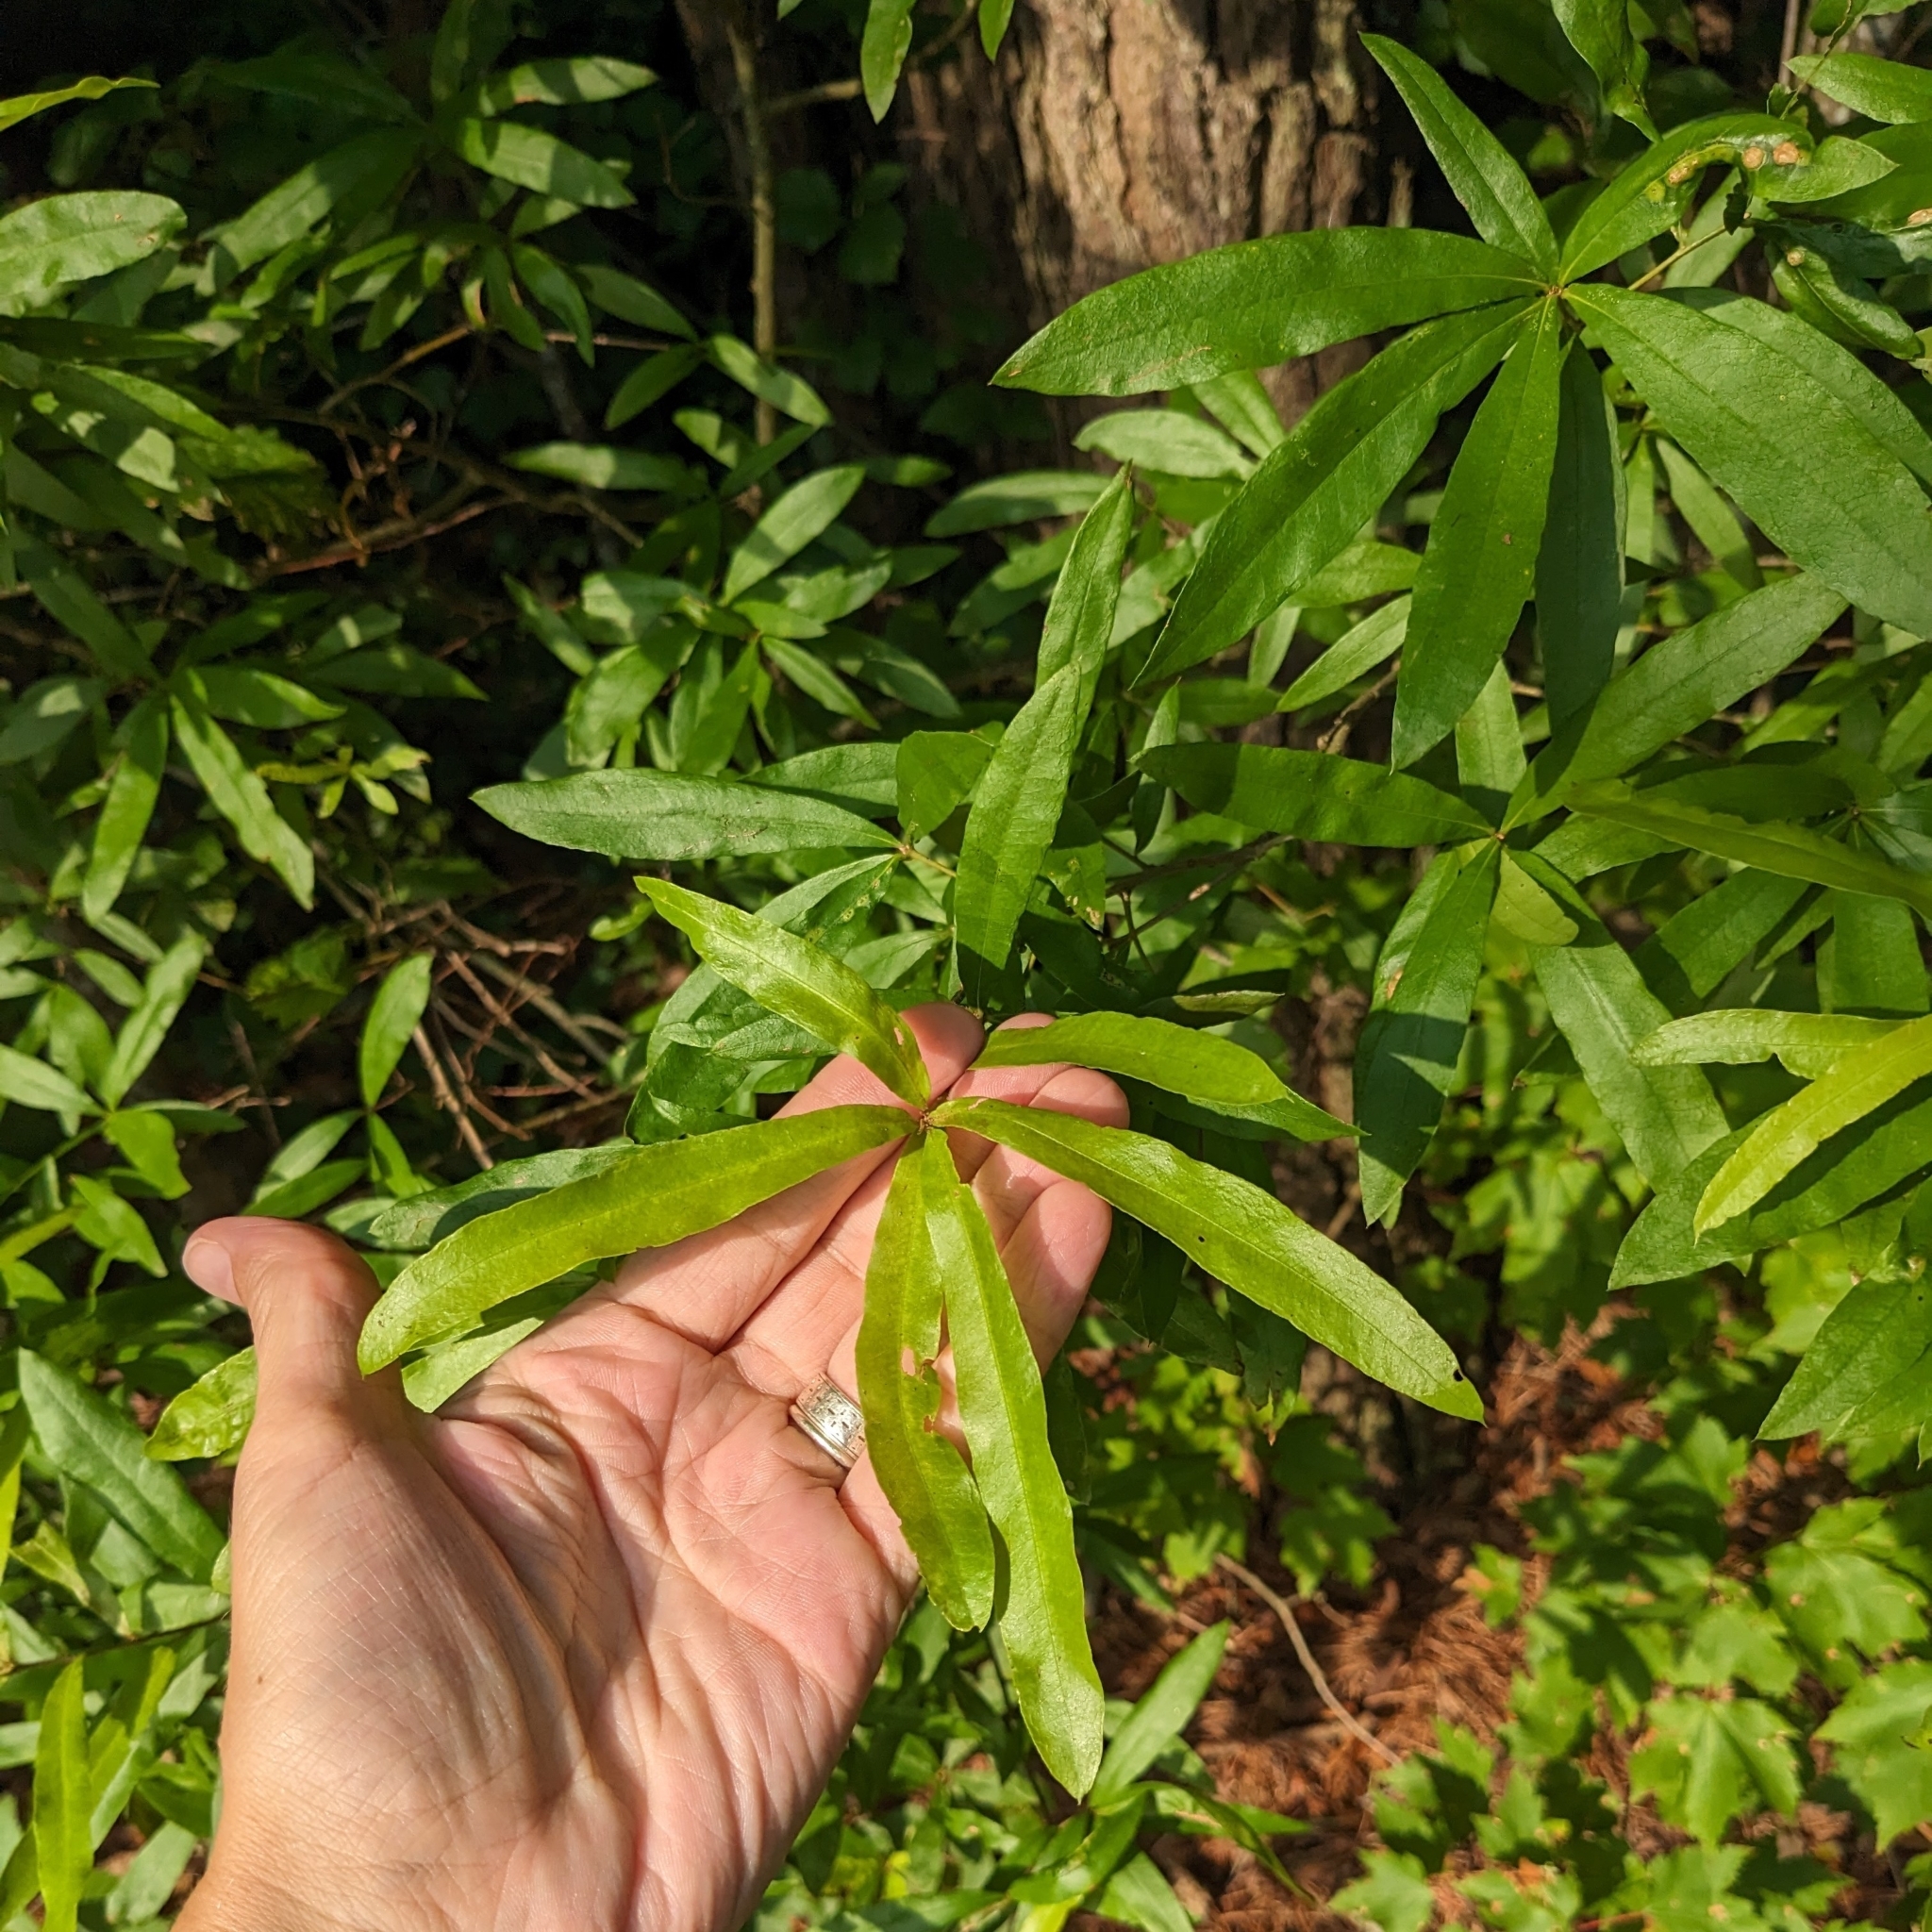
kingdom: Plantae
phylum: Tracheophyta
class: Magnoliopsida
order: Fagales
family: Fagaceae
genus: Quercus
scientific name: Quercus phellos
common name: Willow oak
